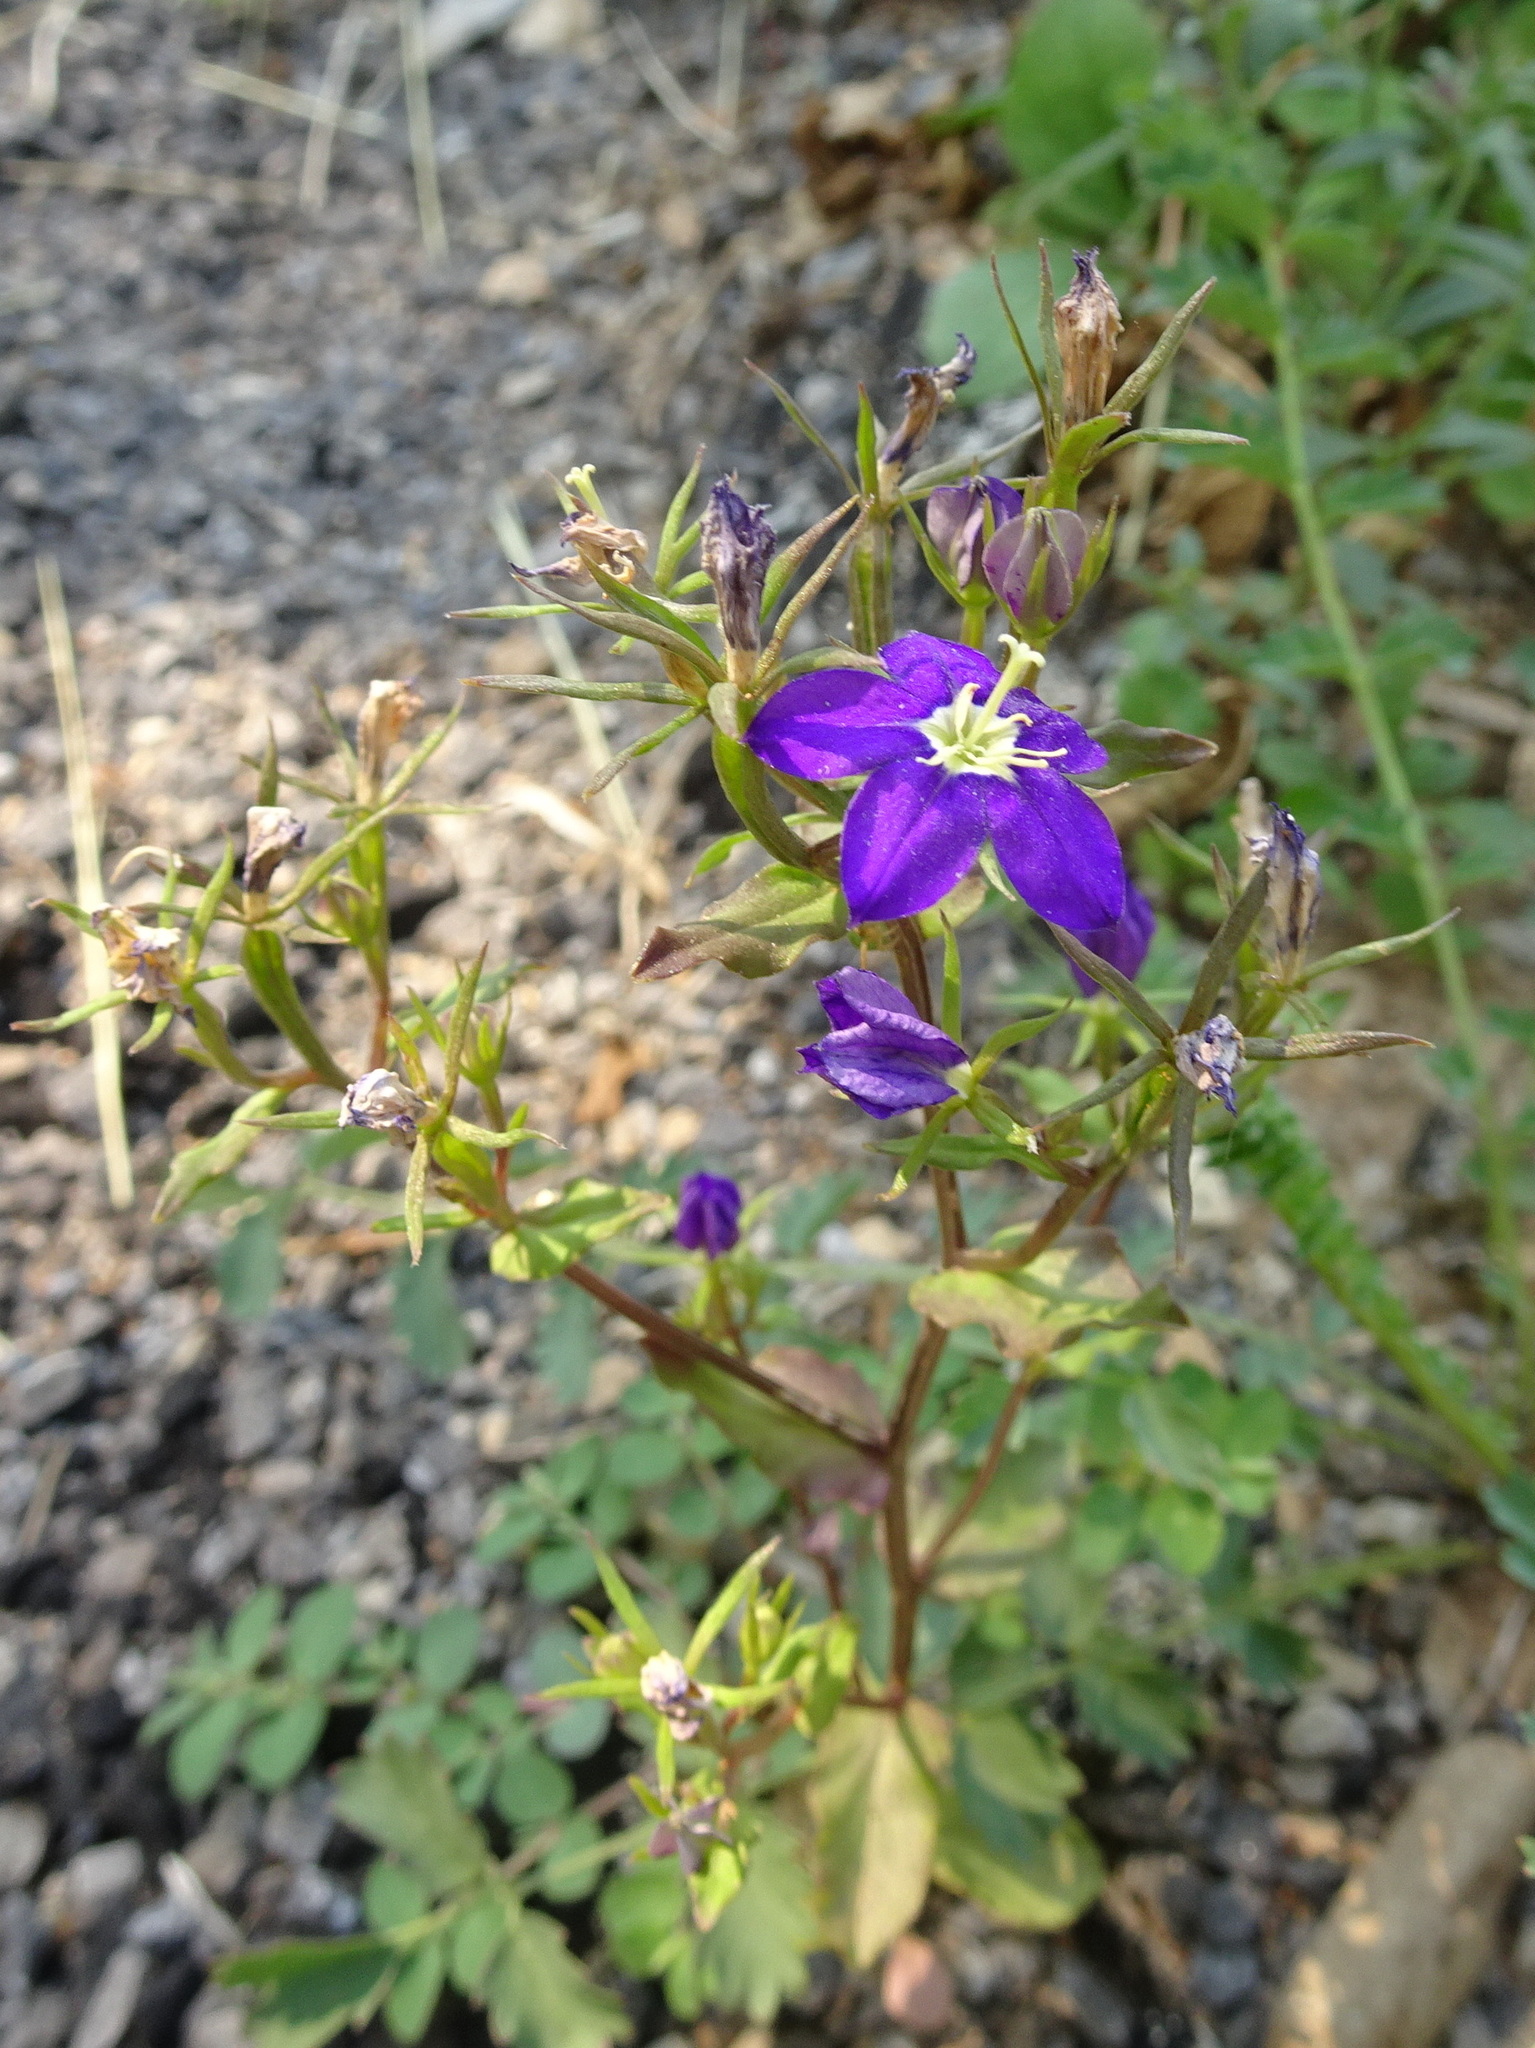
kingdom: Plantae
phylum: Tracheophyta
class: Magnoliopsida
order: Asterales
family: Campanulaceae
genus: Legousia
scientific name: Legousia speculum-veneris
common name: Large venus's-looking-glass
